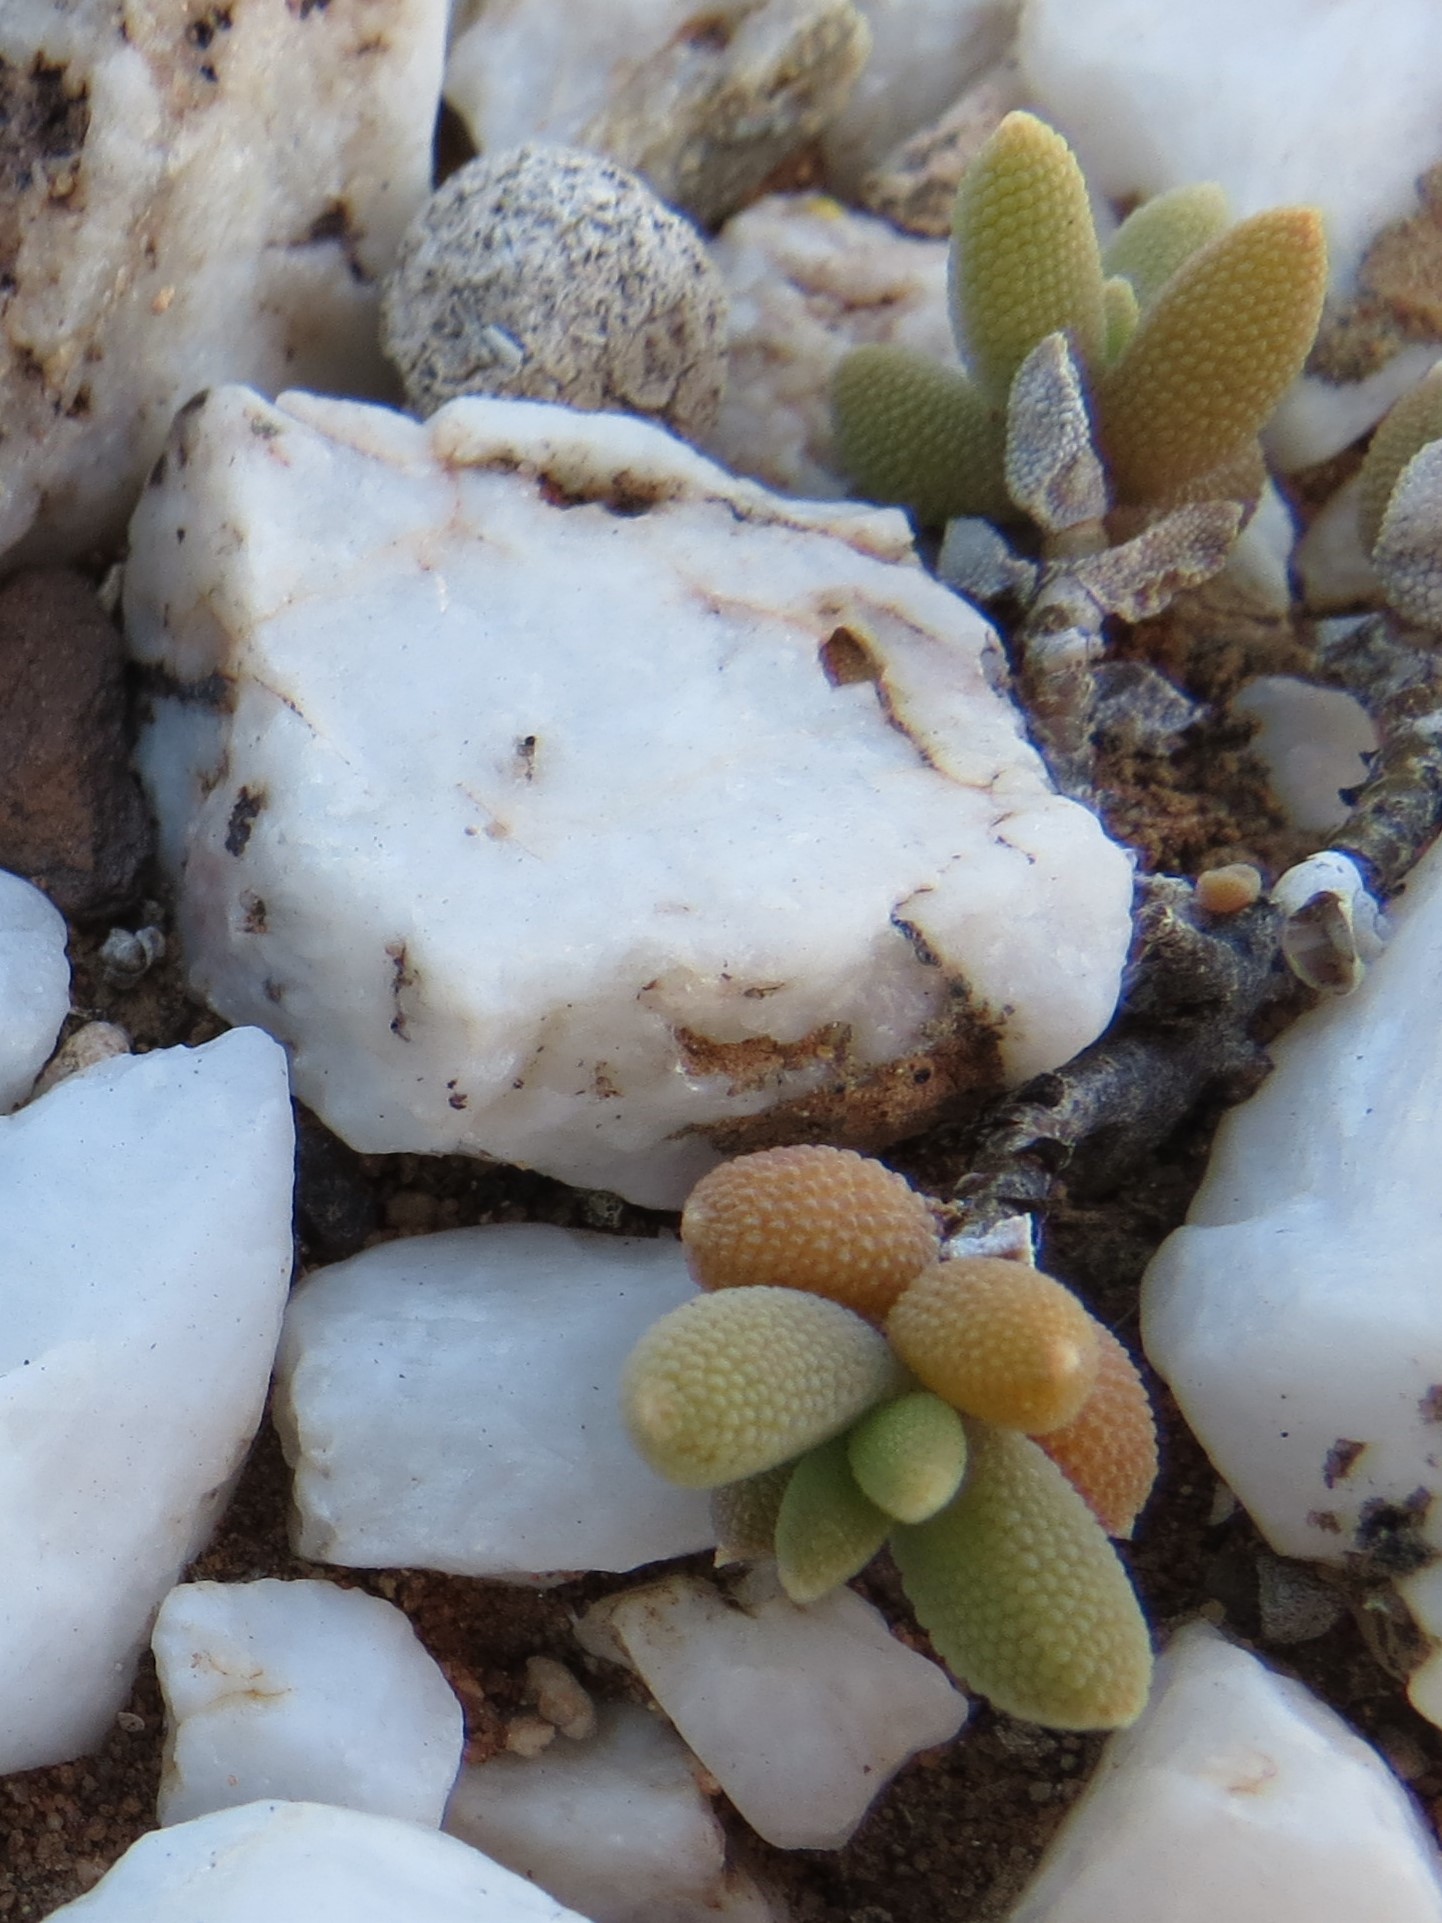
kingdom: Plantae
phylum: Tracheophyta
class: Magnoliopsida
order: Caryophyllales
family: Aizoaceae
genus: Trichodiadema
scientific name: Trichodiadema attonsum
